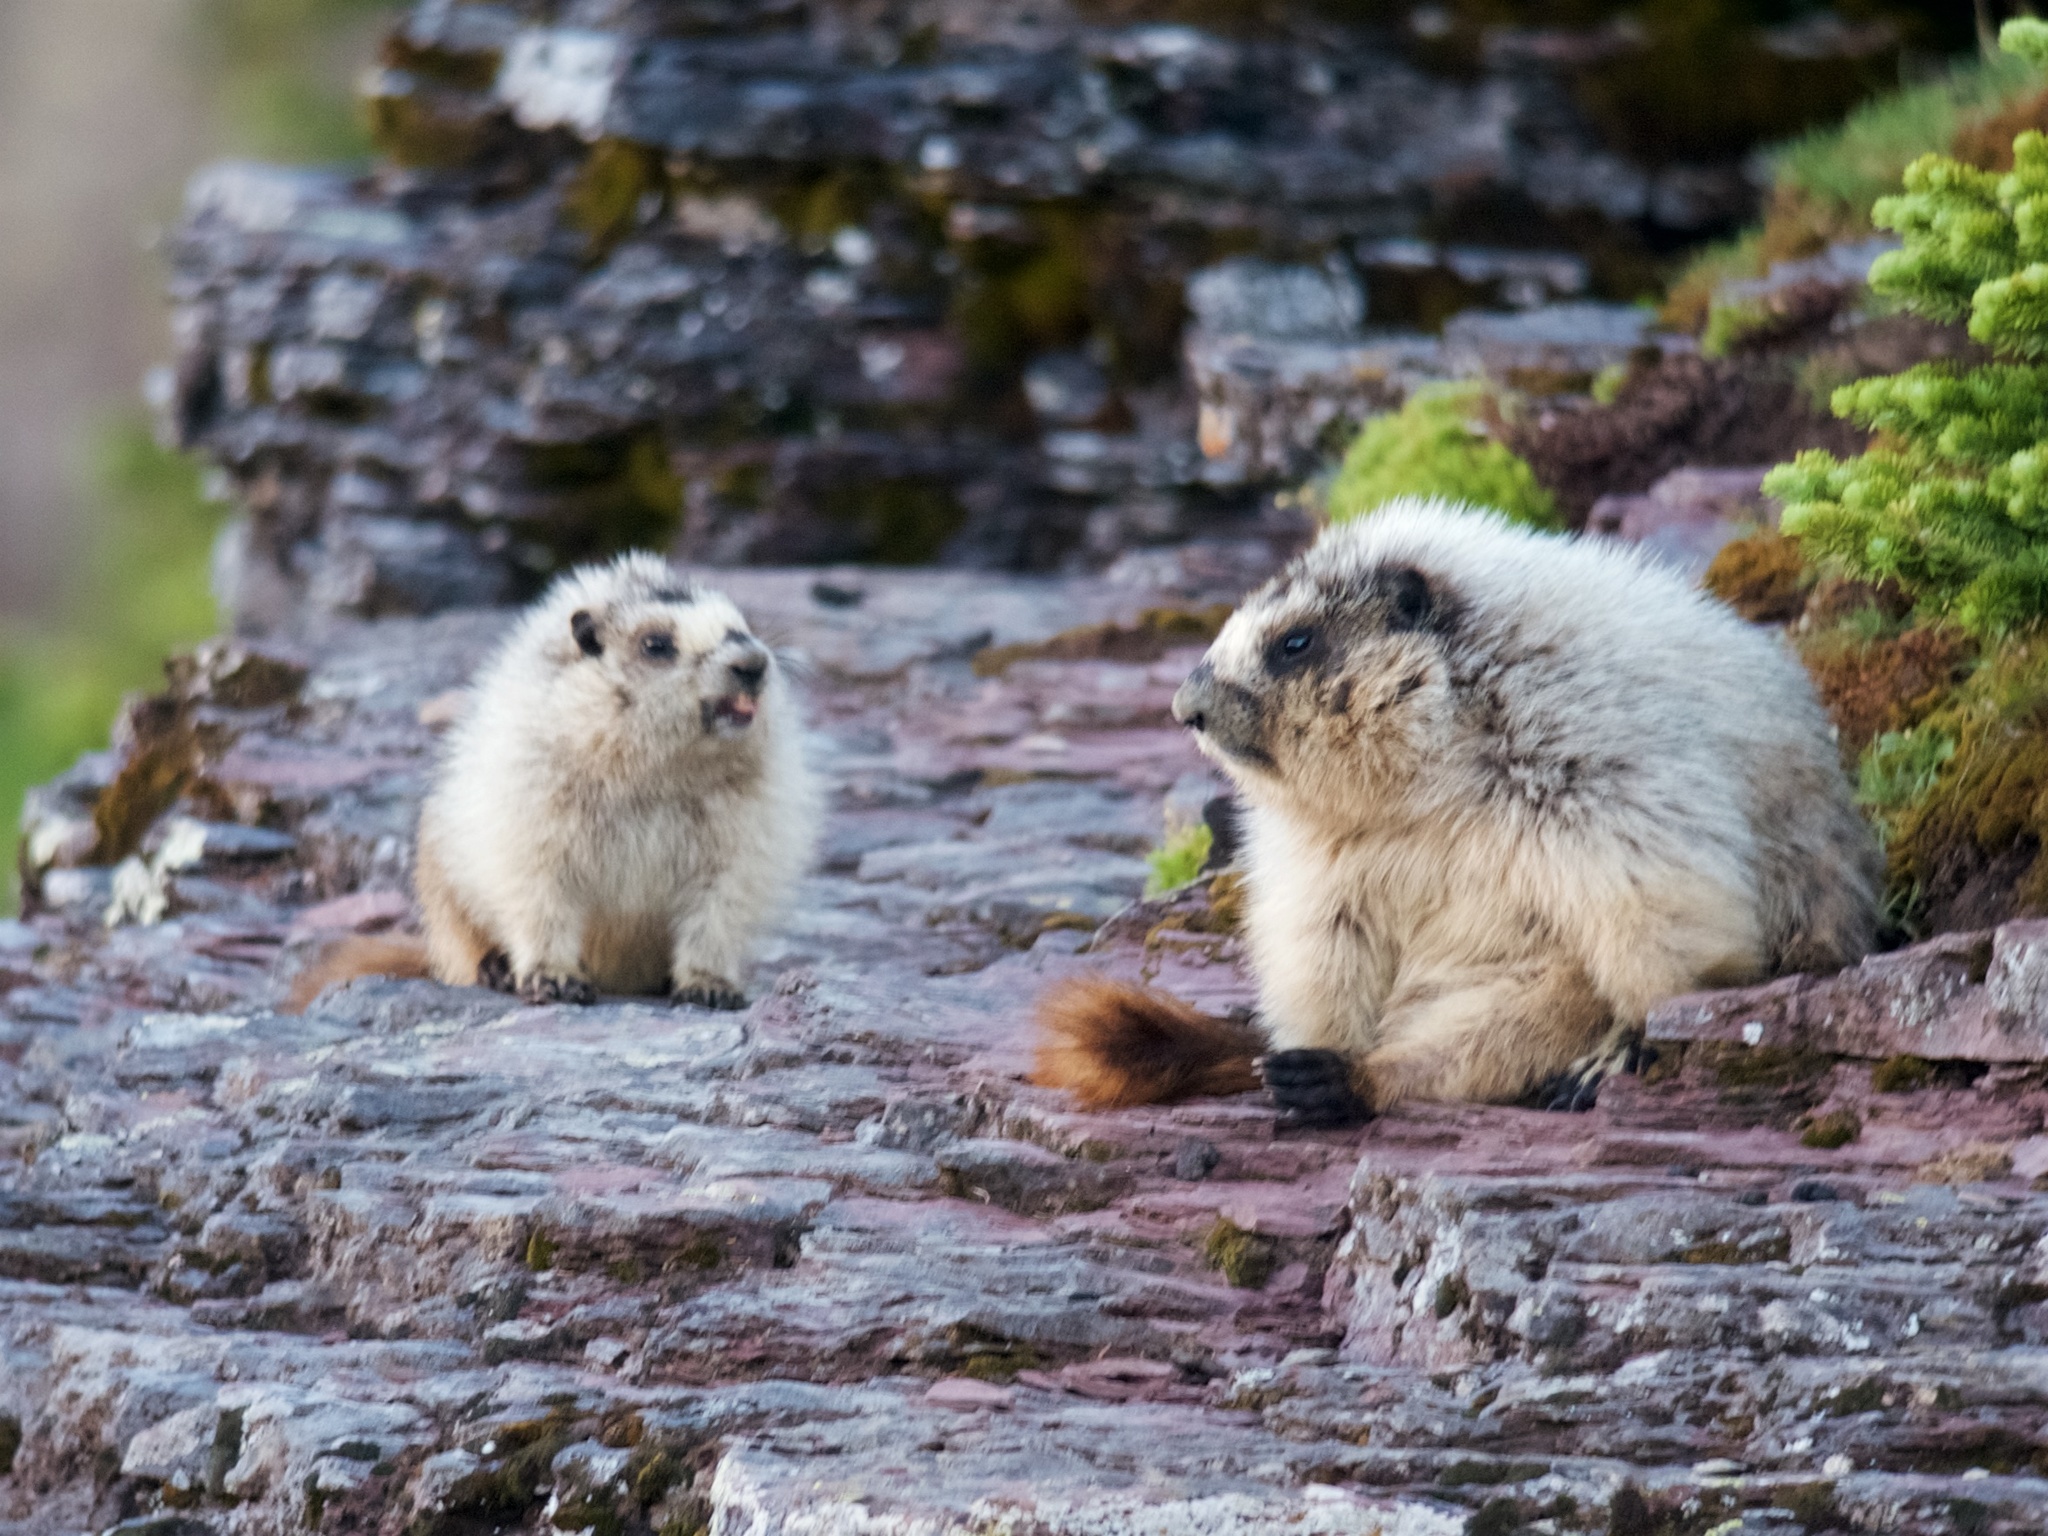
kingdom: Animalia
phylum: Chordata
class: Mammalia
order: Rodentia
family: Sciuridae
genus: Marmota
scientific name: Marmota caligata
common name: Hoary marmot
